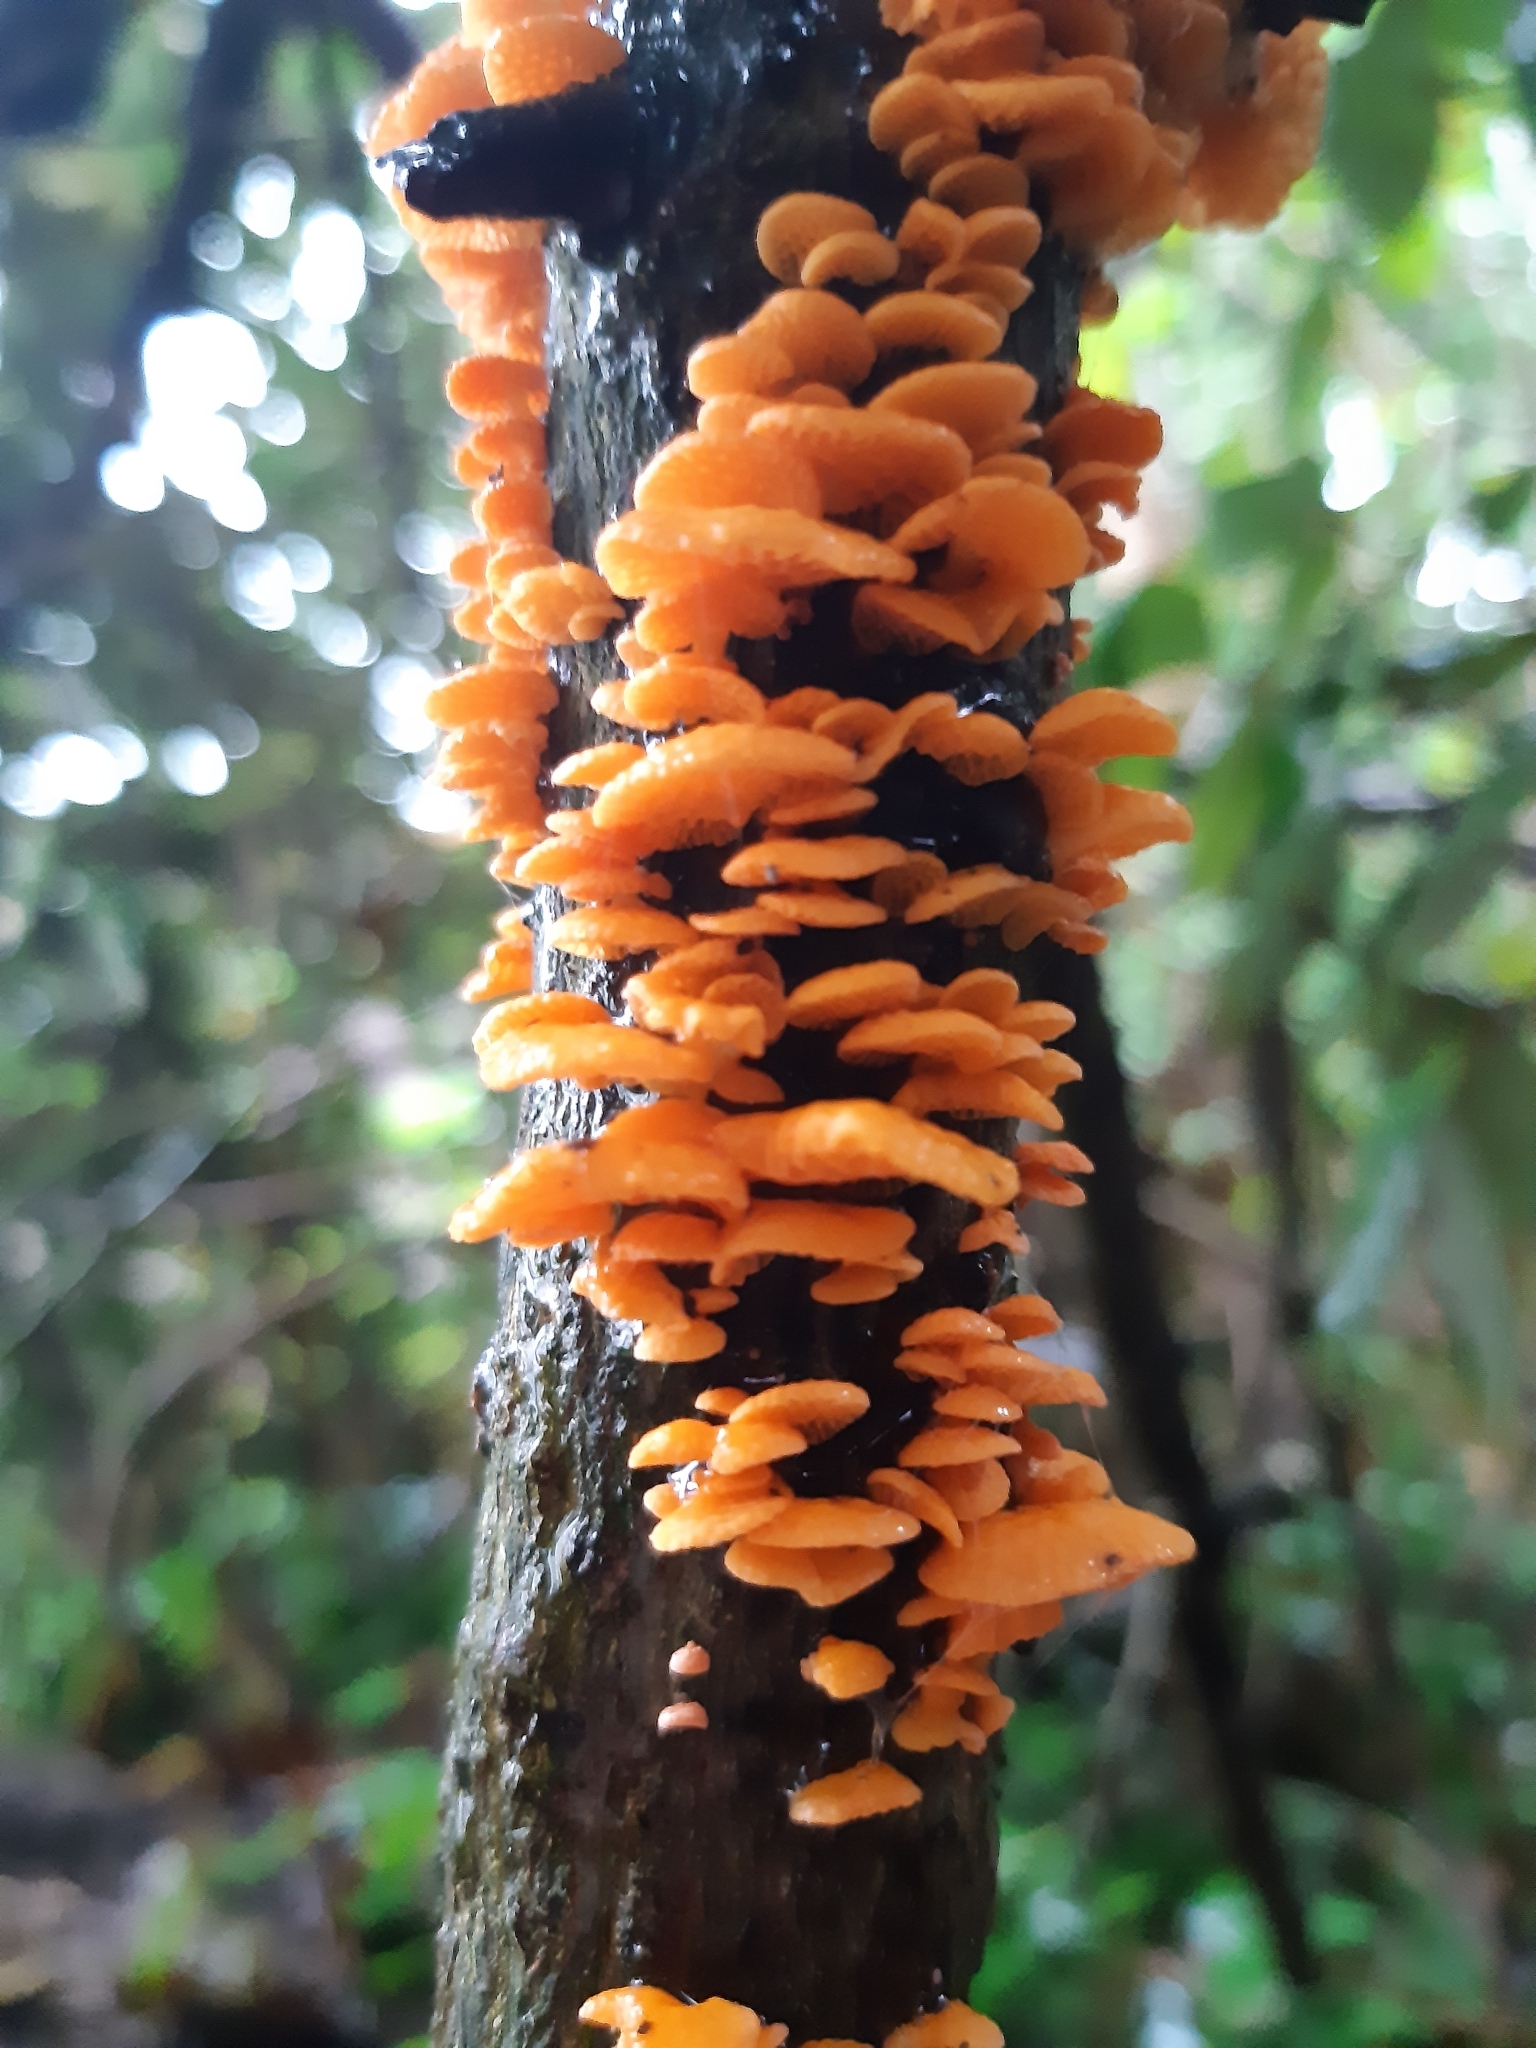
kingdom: Fungi
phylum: Basidiomycota
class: Agaricomycetes
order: Agaricales
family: Mycenaceae
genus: Favolaschia
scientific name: Favolaschia claudopus
